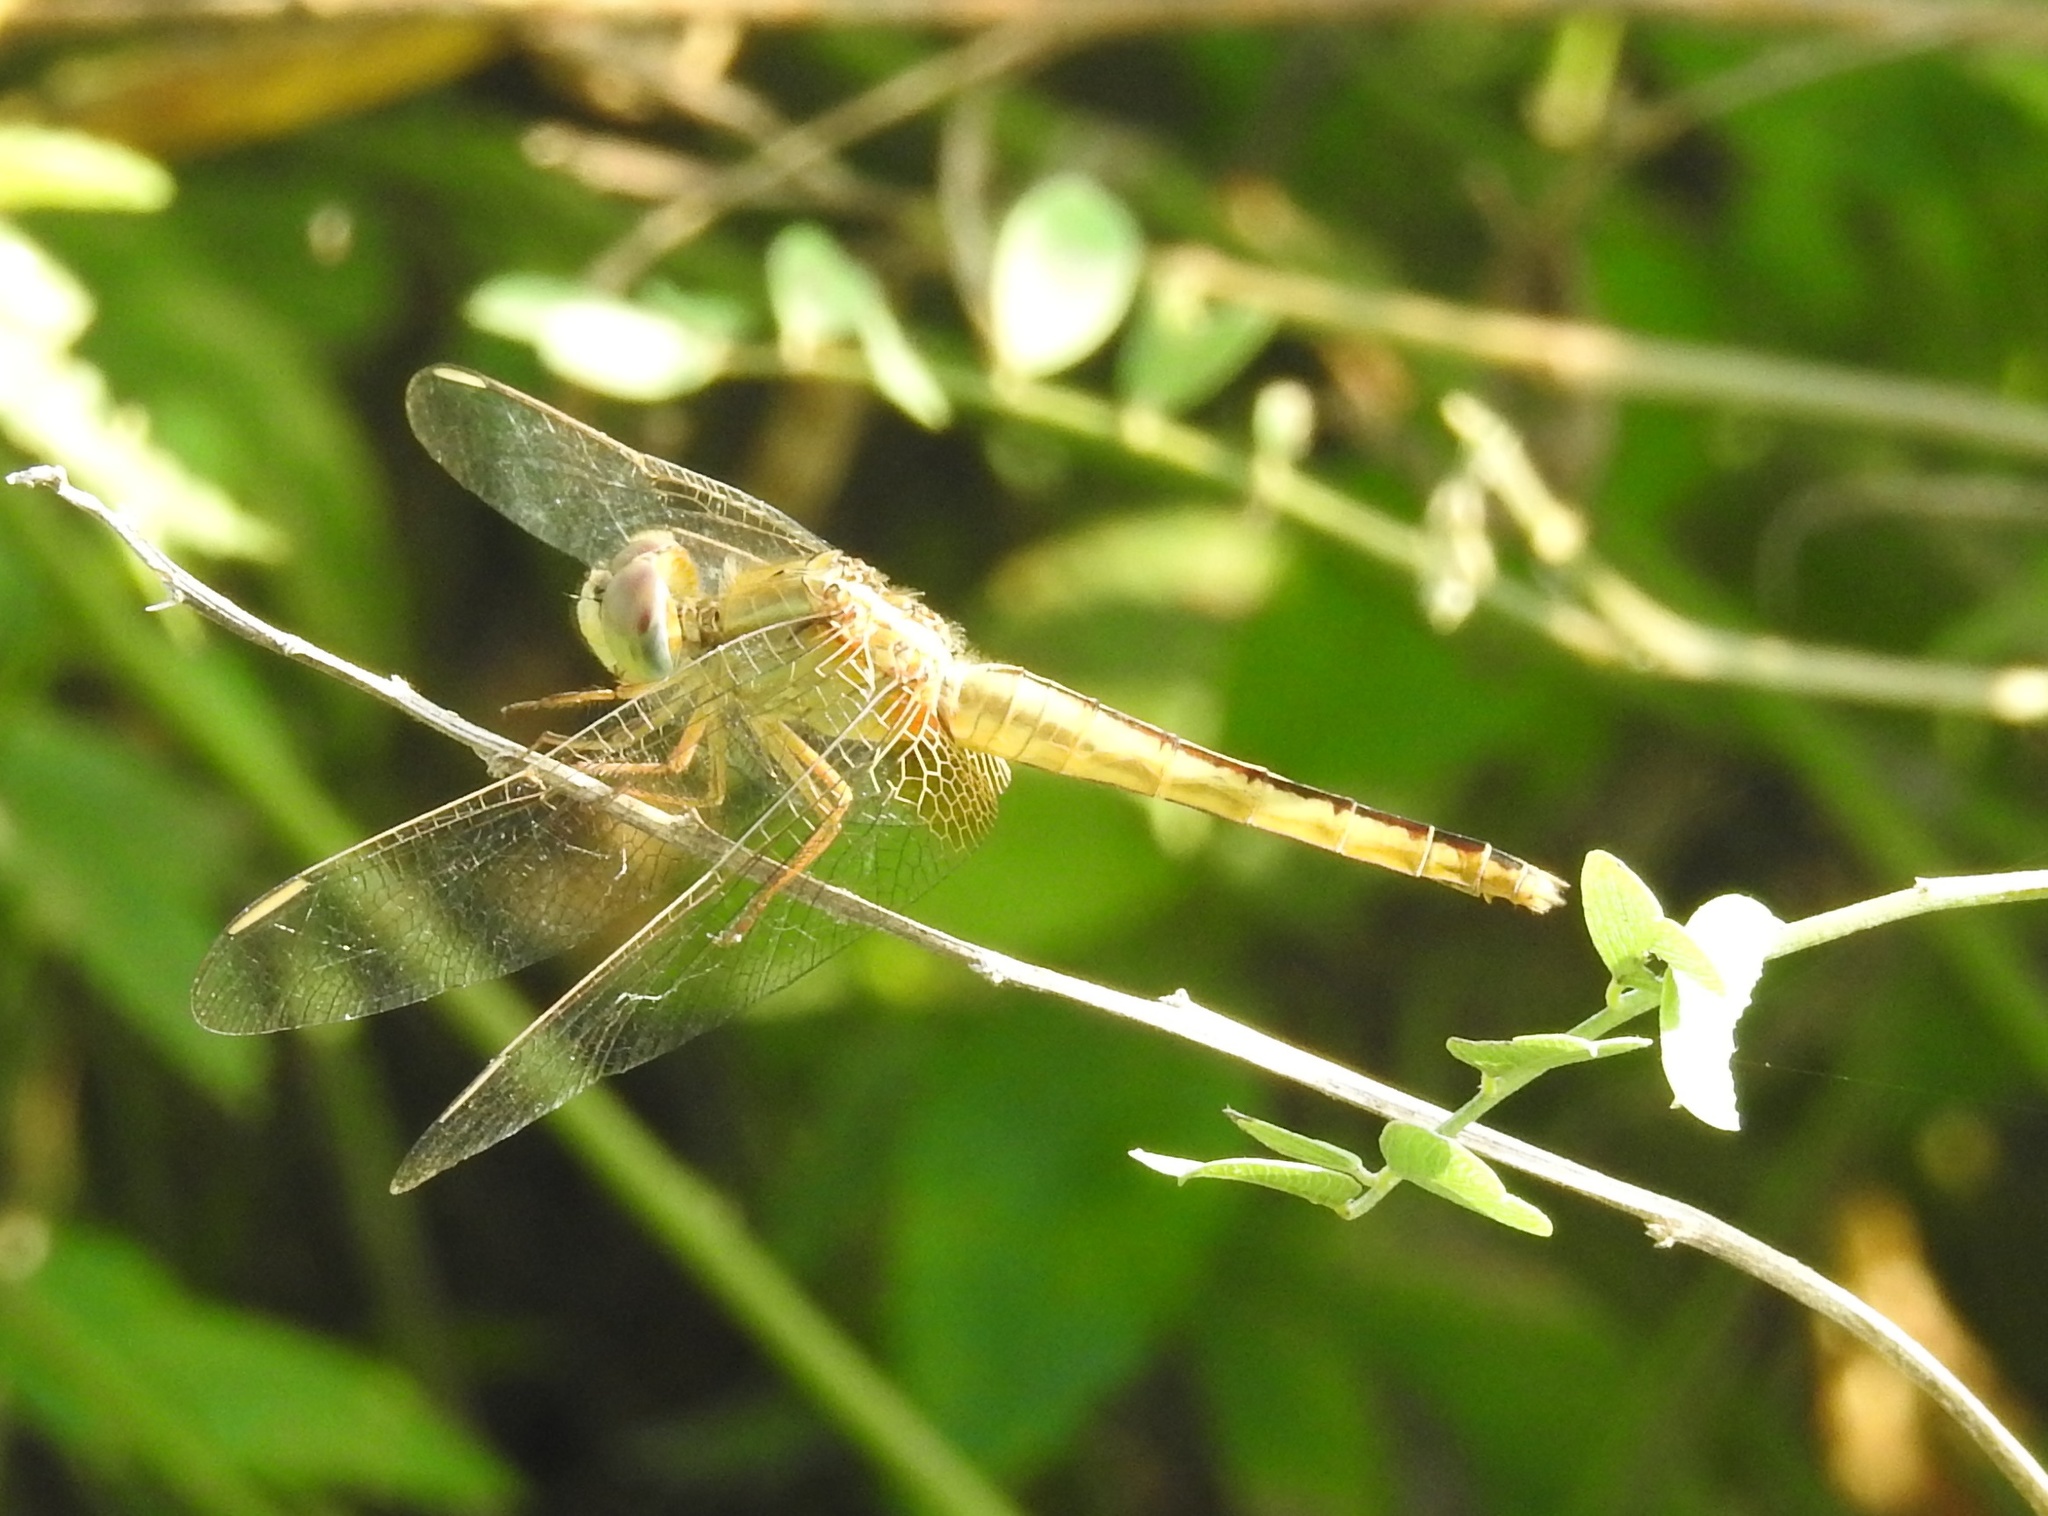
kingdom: Animalia
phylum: Arthropoda
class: Insecta
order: Odonata
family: Libellulidae
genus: Crocothemis
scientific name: Crocothemis servilia
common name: Scarlet skimmer
